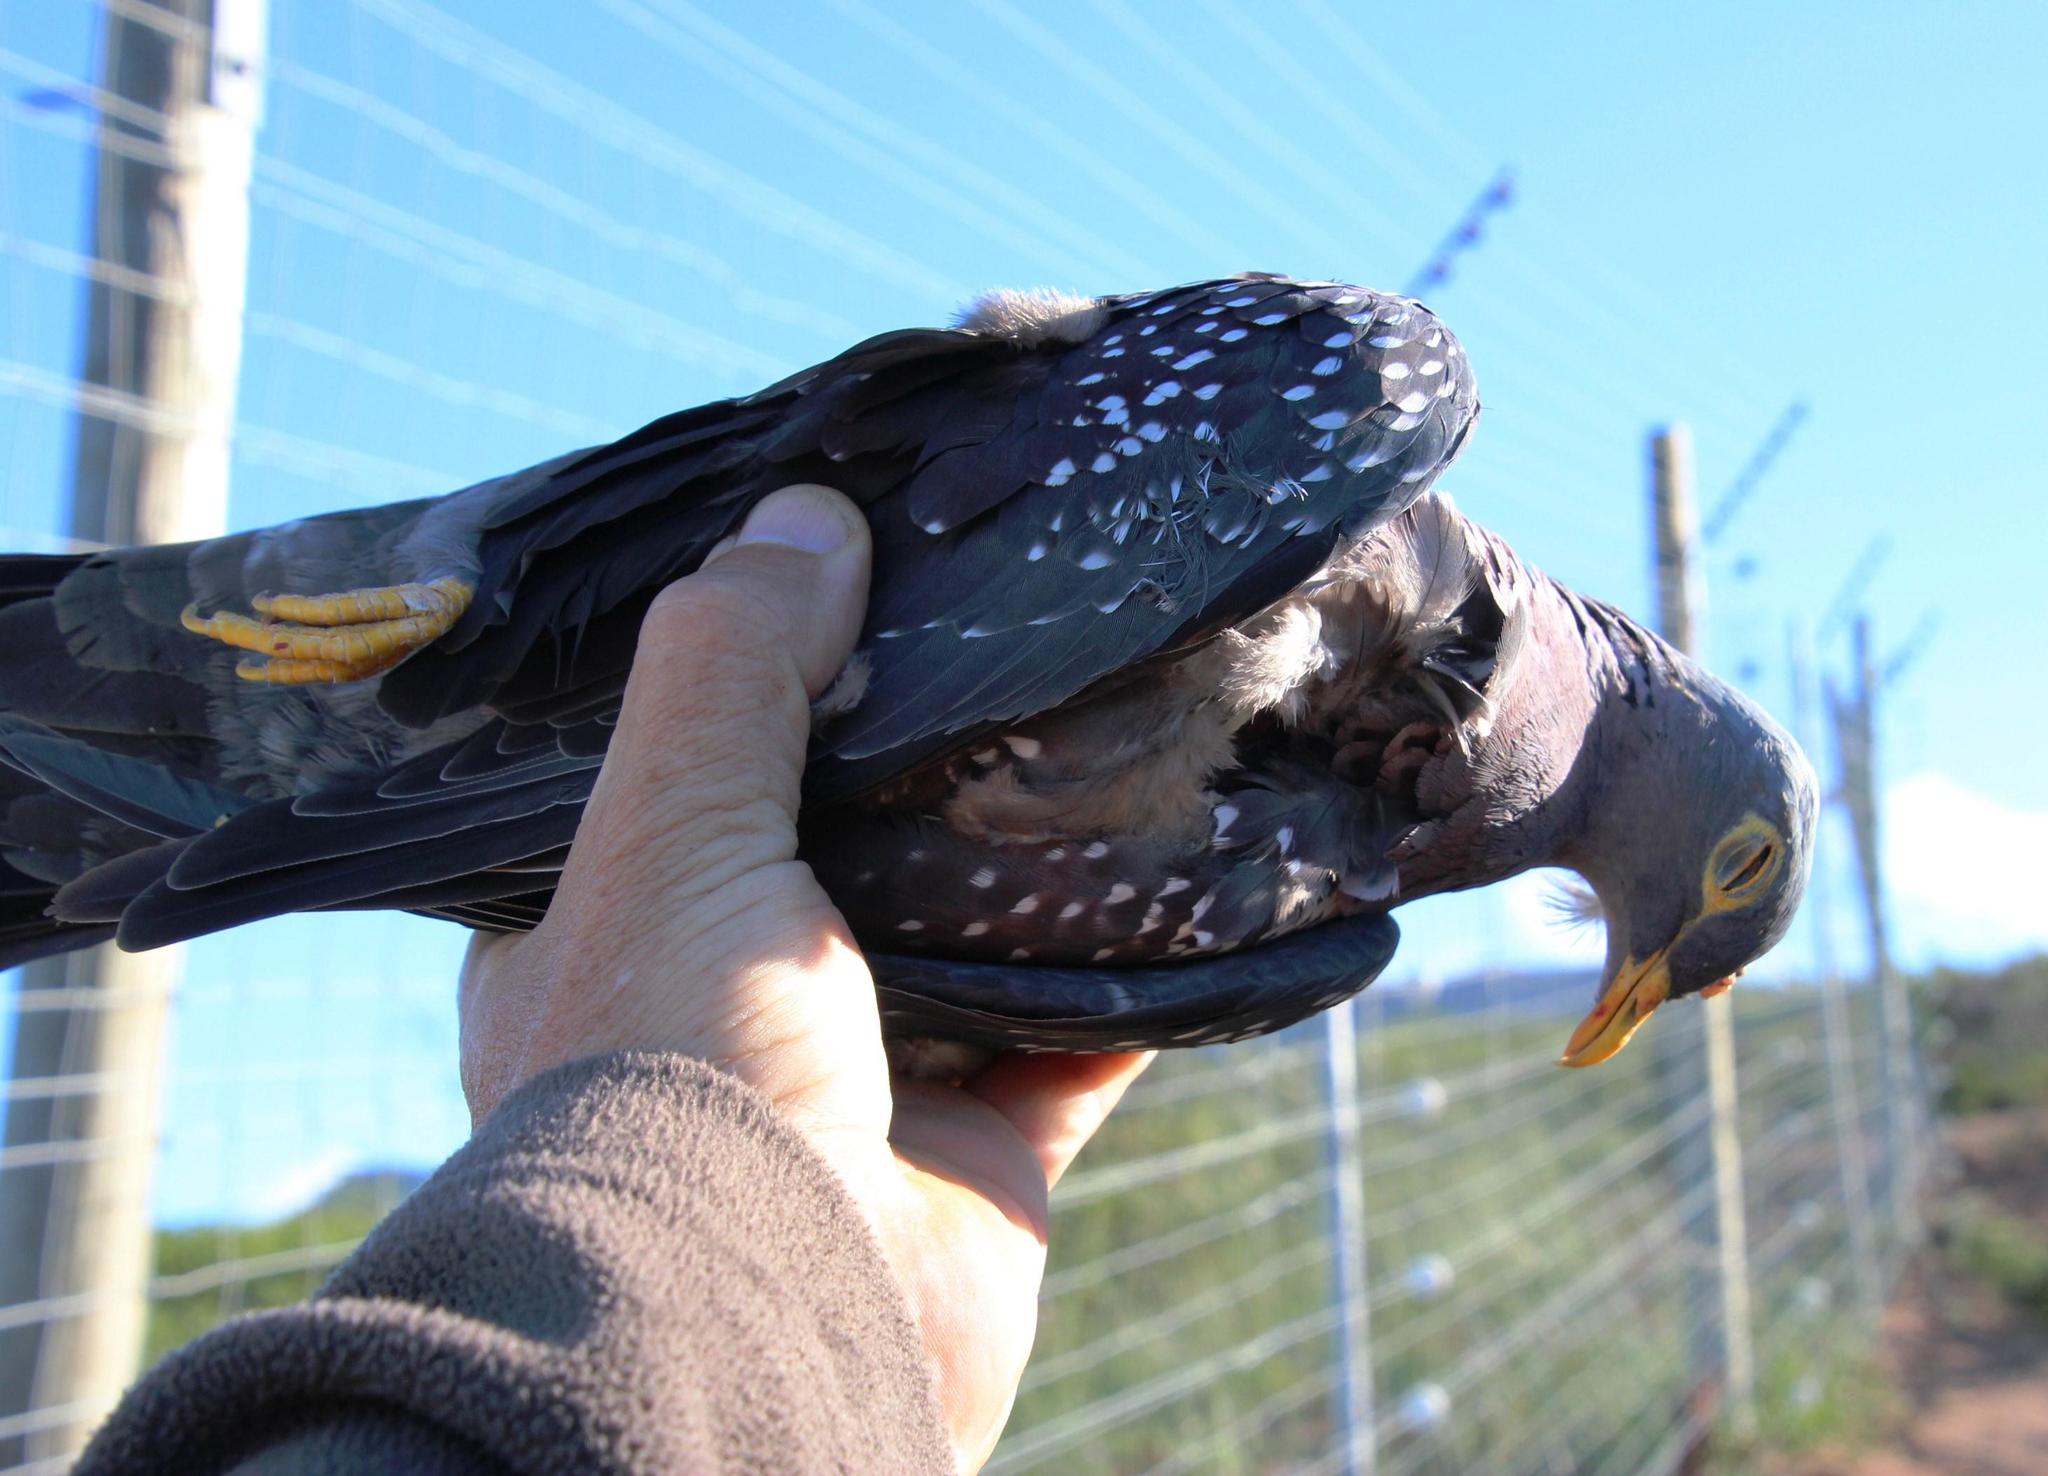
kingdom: Animalia
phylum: Chordata
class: Aves
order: Columbiformes
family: Columbidae
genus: Columba
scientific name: Columba arquatrix
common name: African olive pigeon
